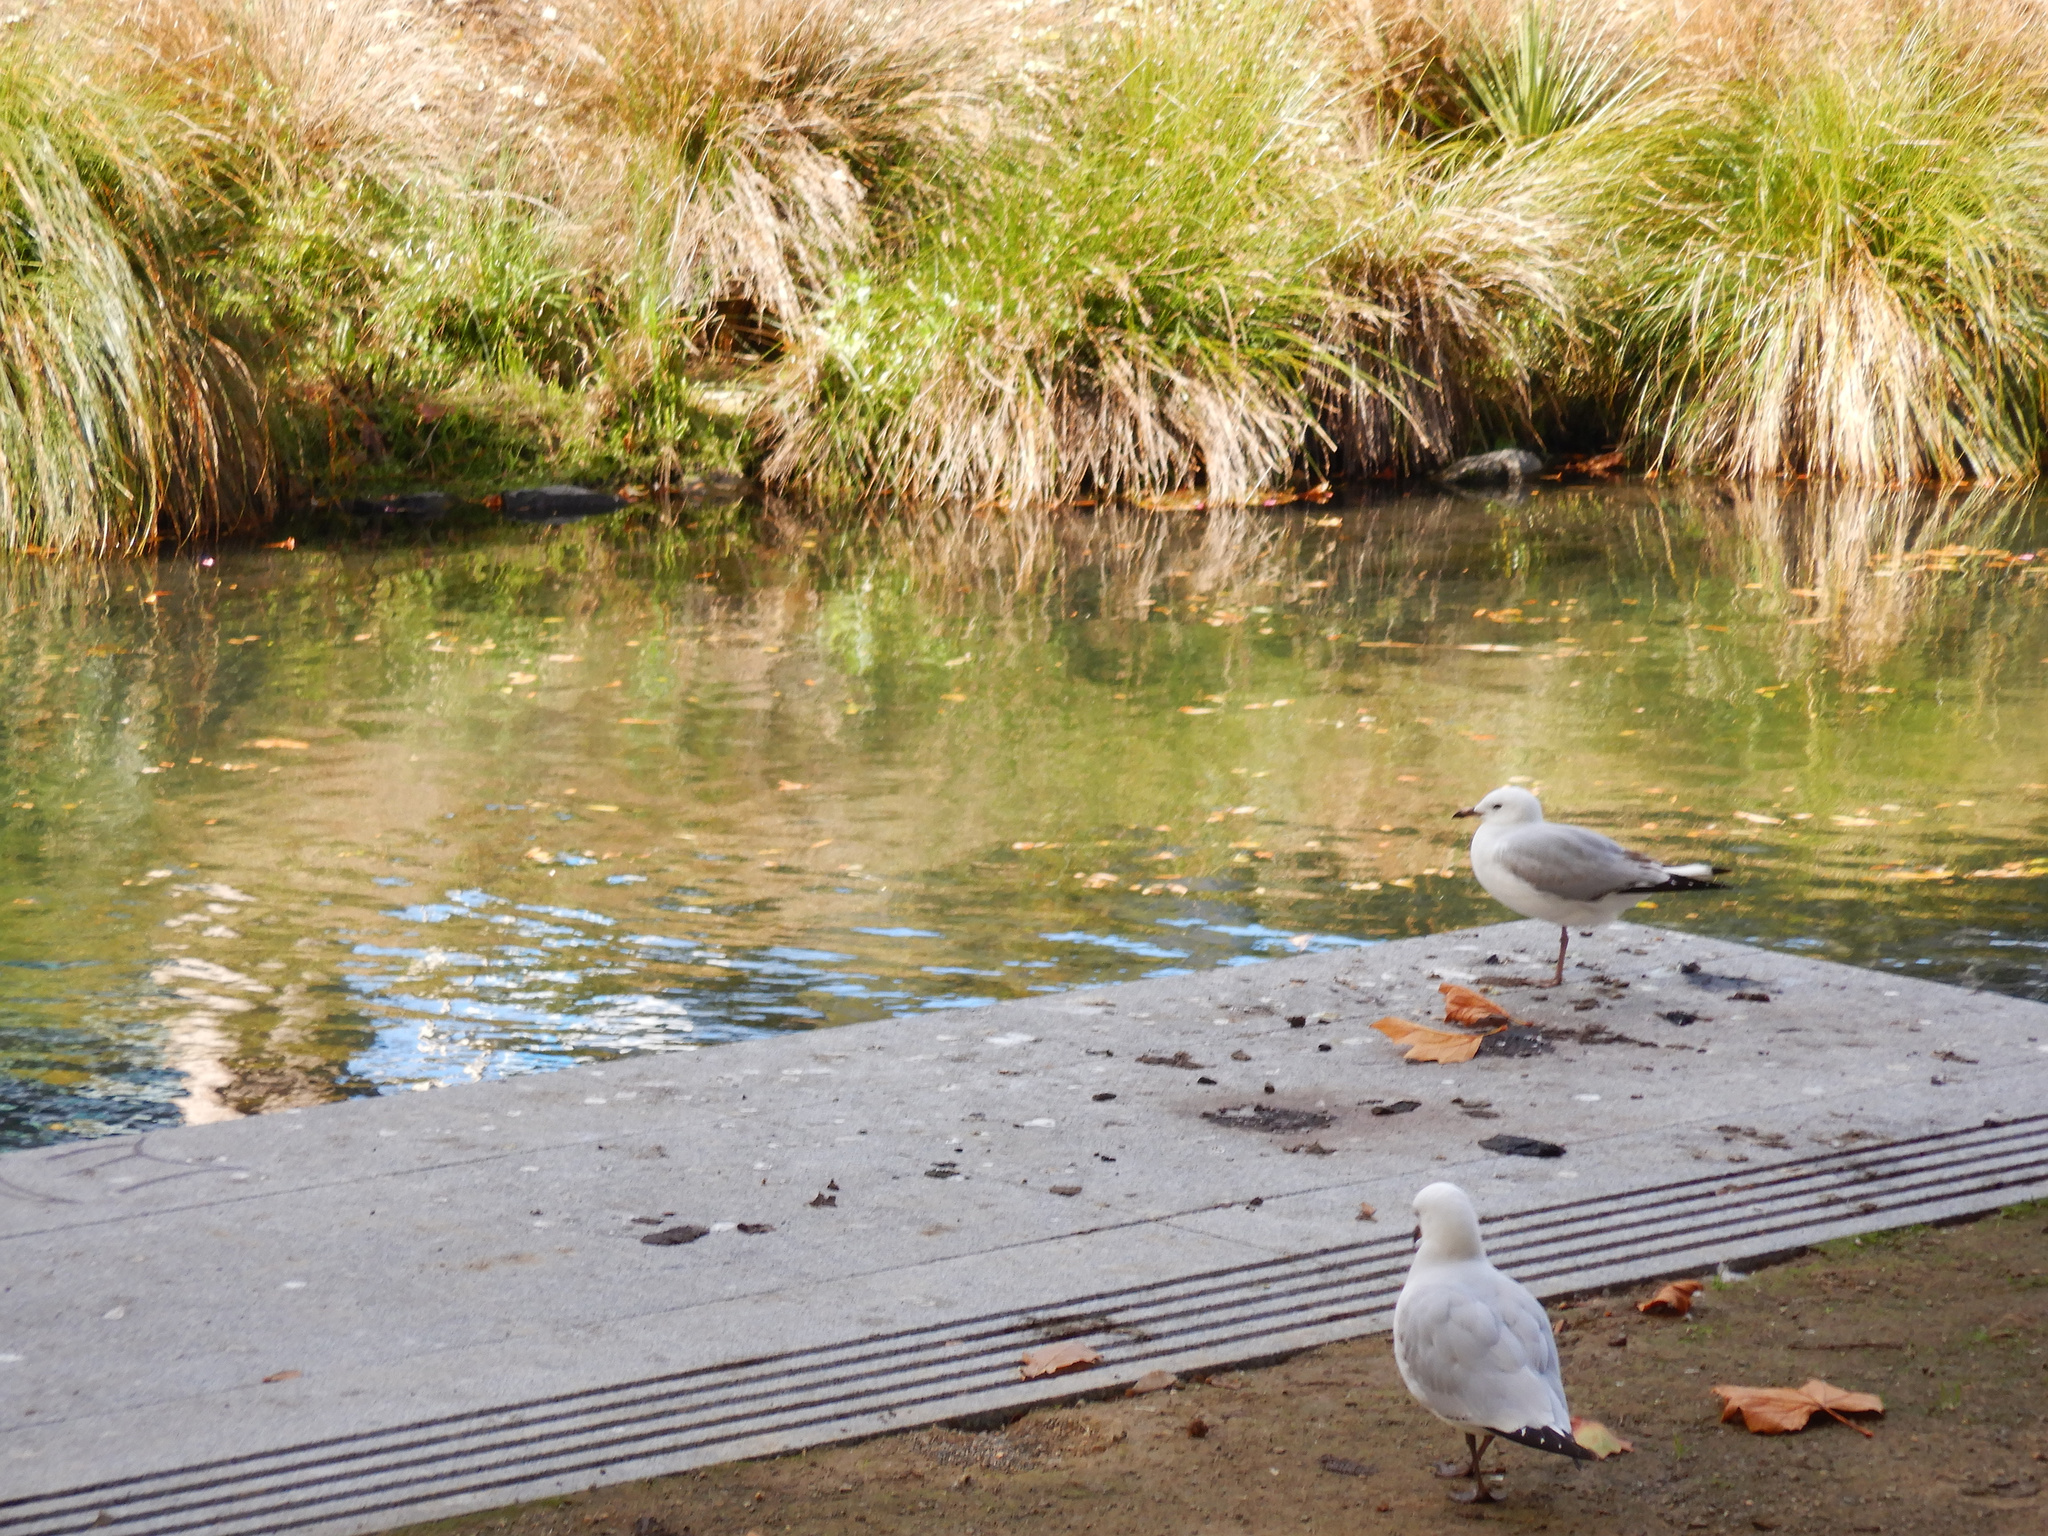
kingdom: Animalia
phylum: Chordata
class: Aves
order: Charadriiformes
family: Laridae
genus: Chroicocephalus
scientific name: Chroicocephalus novaehollandiae
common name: Silver gull
